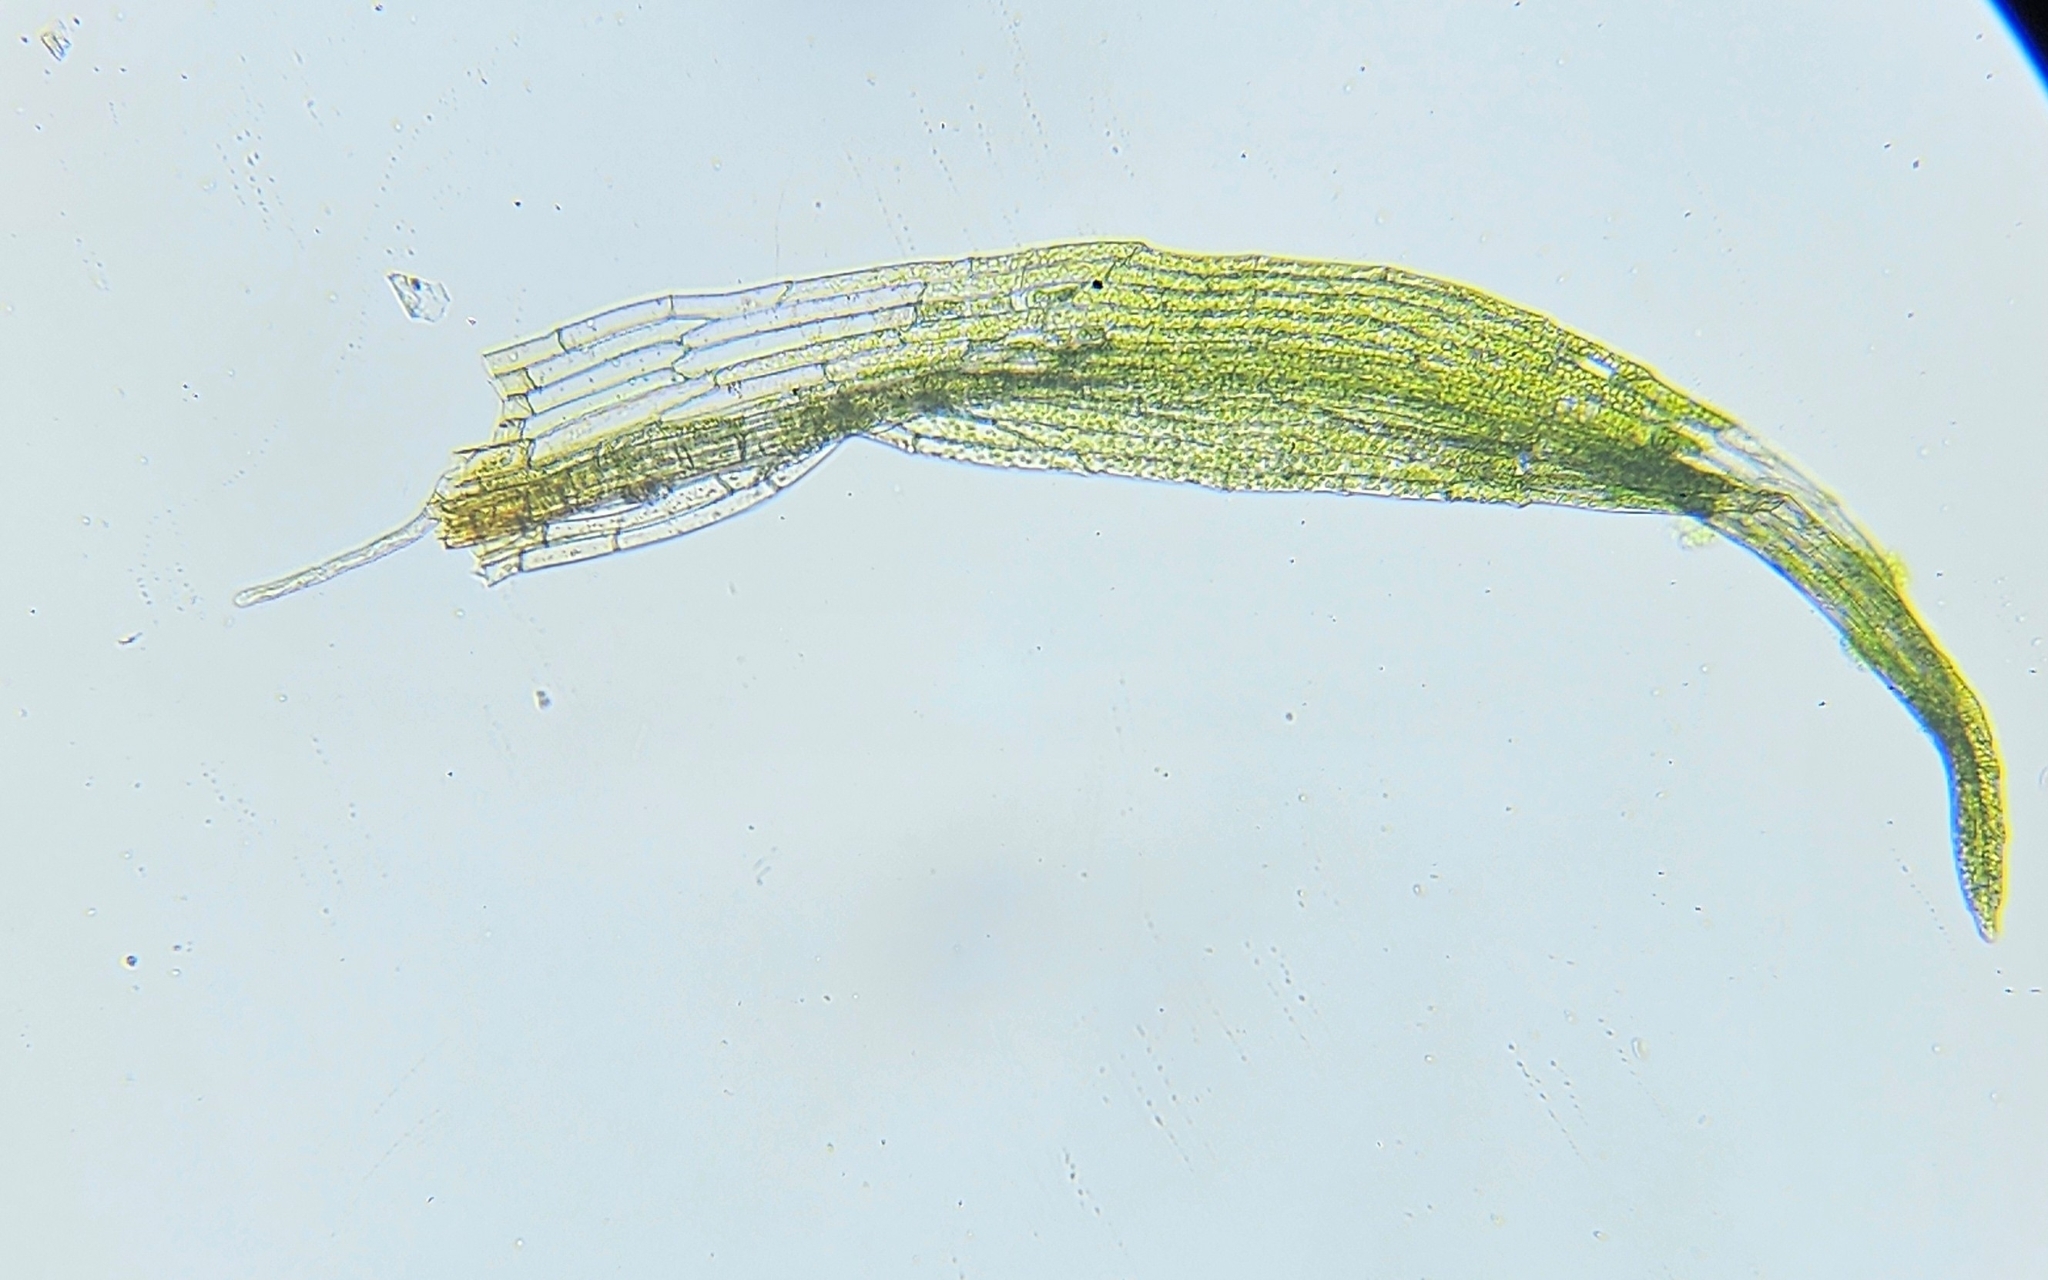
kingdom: Plantae
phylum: Bryophyta
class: Bryopsida
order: Orthodontiales
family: Orthodontiaceae
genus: Orthodontium
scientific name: Orthodontium lineare
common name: Cape thread-moss
